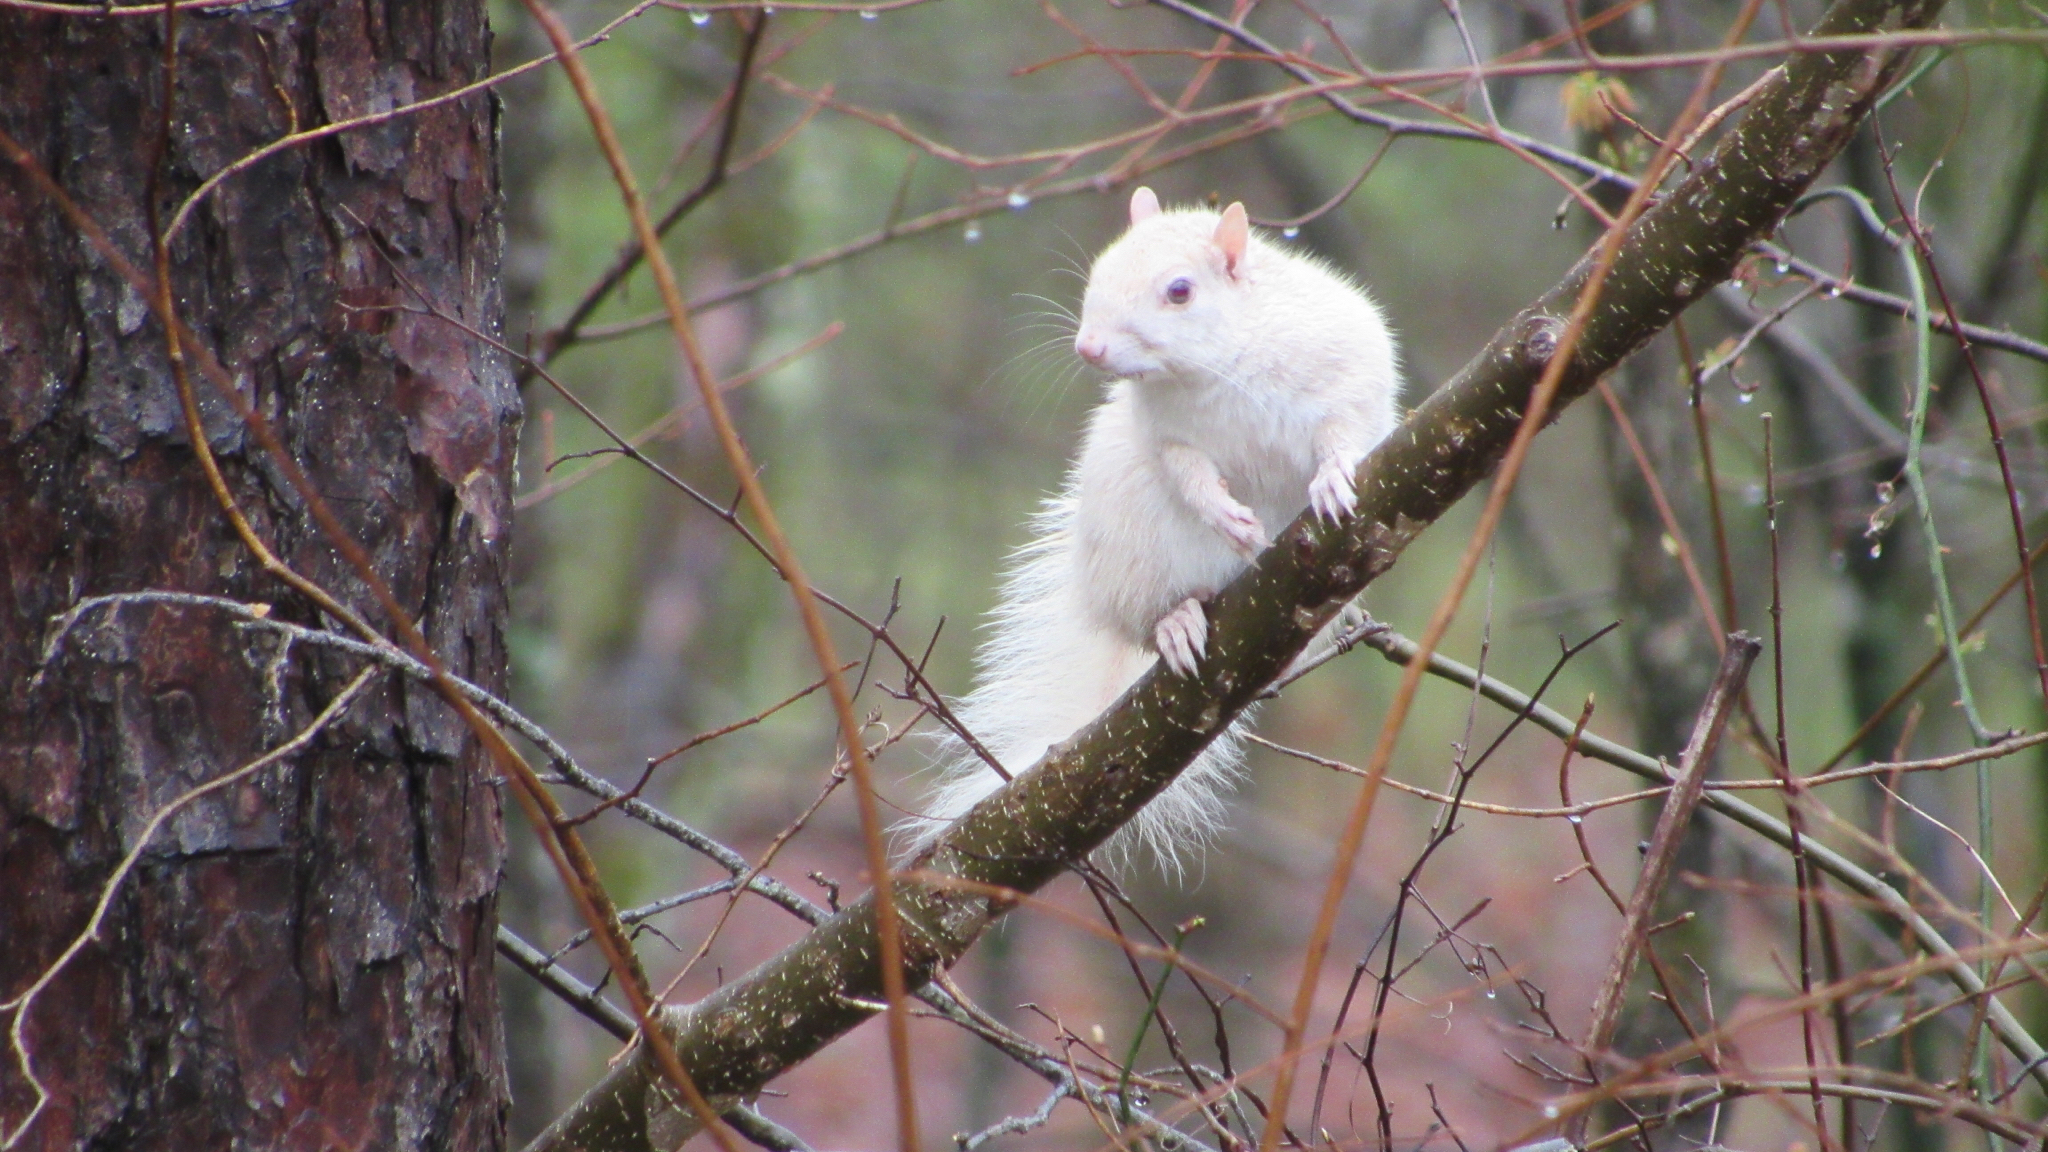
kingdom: Animalia
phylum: Chordata
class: Mammalia
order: Rodentia
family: Sciuridae
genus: Sciurus
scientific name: Sciurus carolinensis
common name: Eastern gray squirrel
